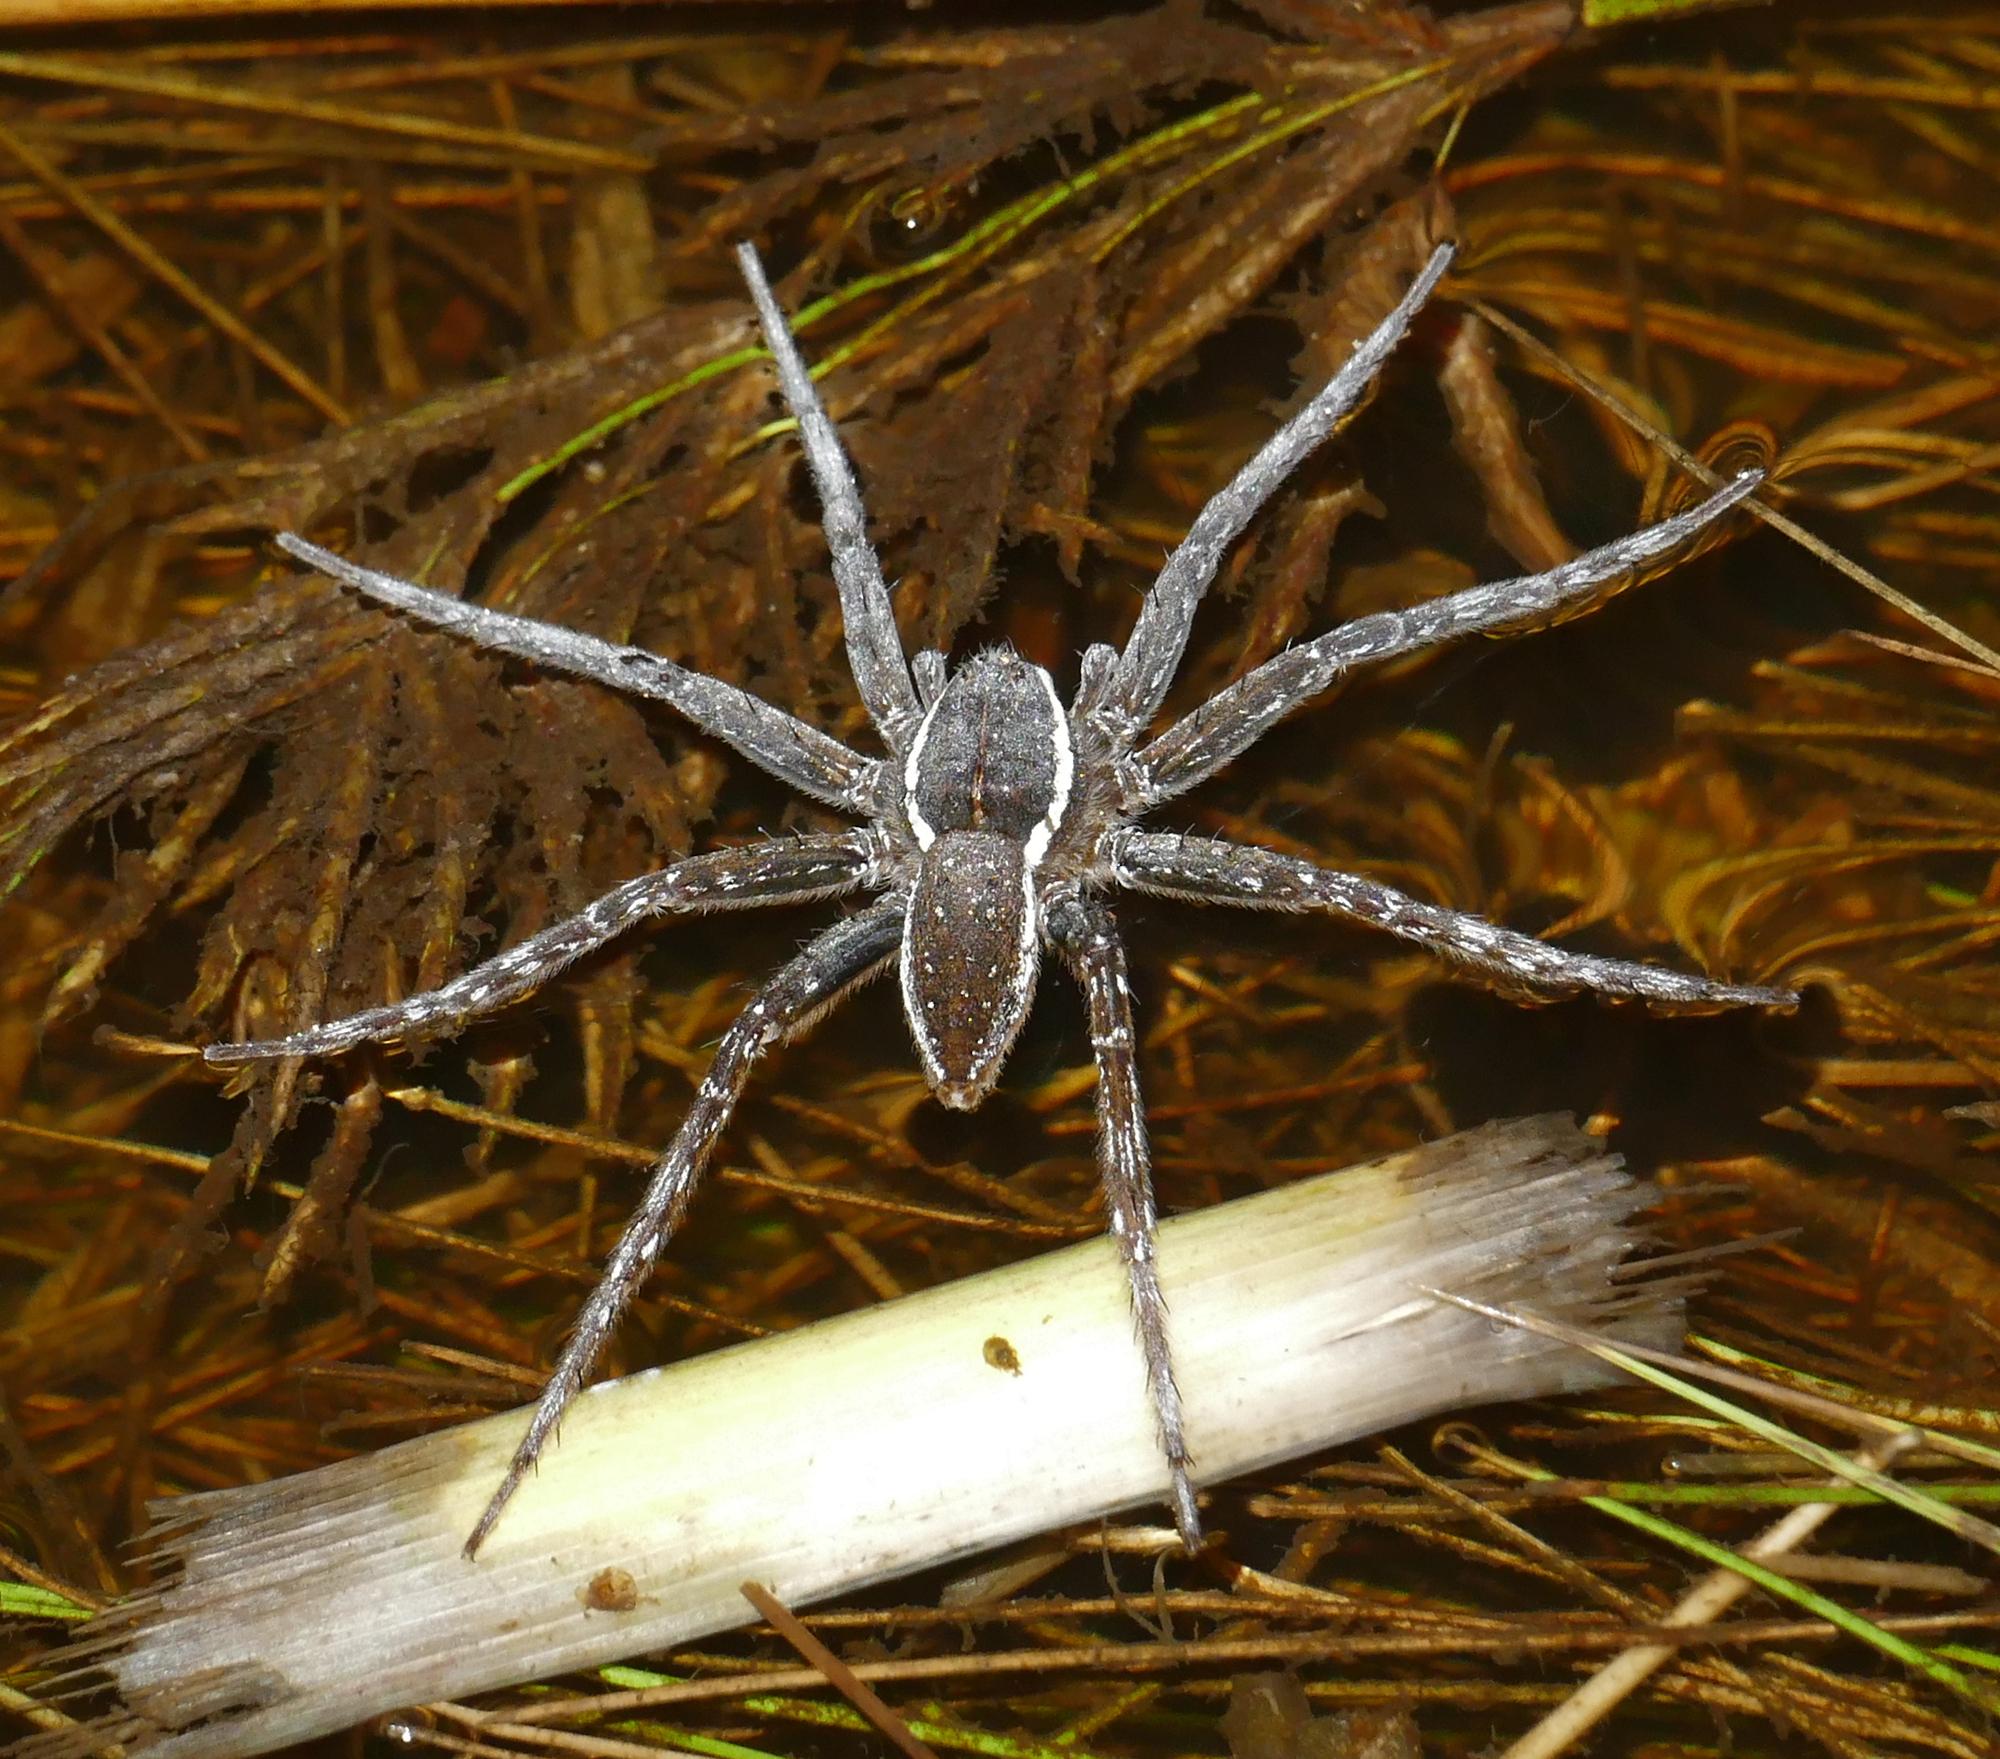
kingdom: Animalia
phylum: Arthropoda
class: Arachnida
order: Araneae
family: Pisauridae
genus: Dolomedes
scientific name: Dolomedes triton
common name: Six-spotted fishing spider
